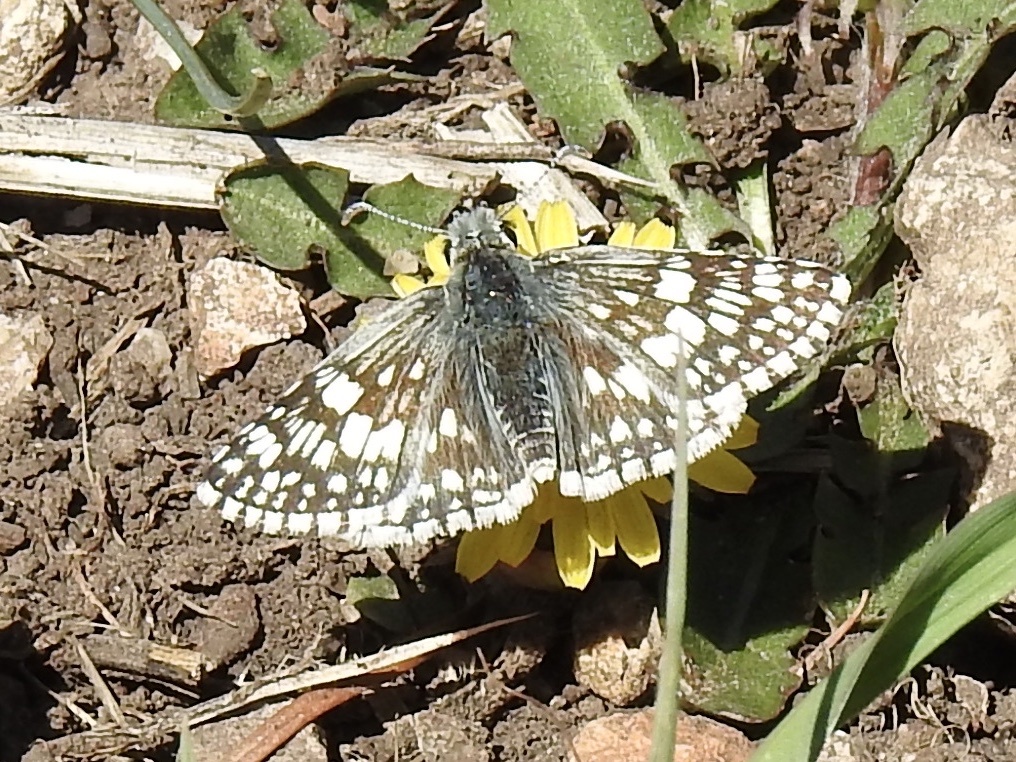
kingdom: Animalia
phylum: Arthropoda
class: Insecta
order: Lepidoptera
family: Hesperiidae
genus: Burnsius
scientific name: Burnsius
